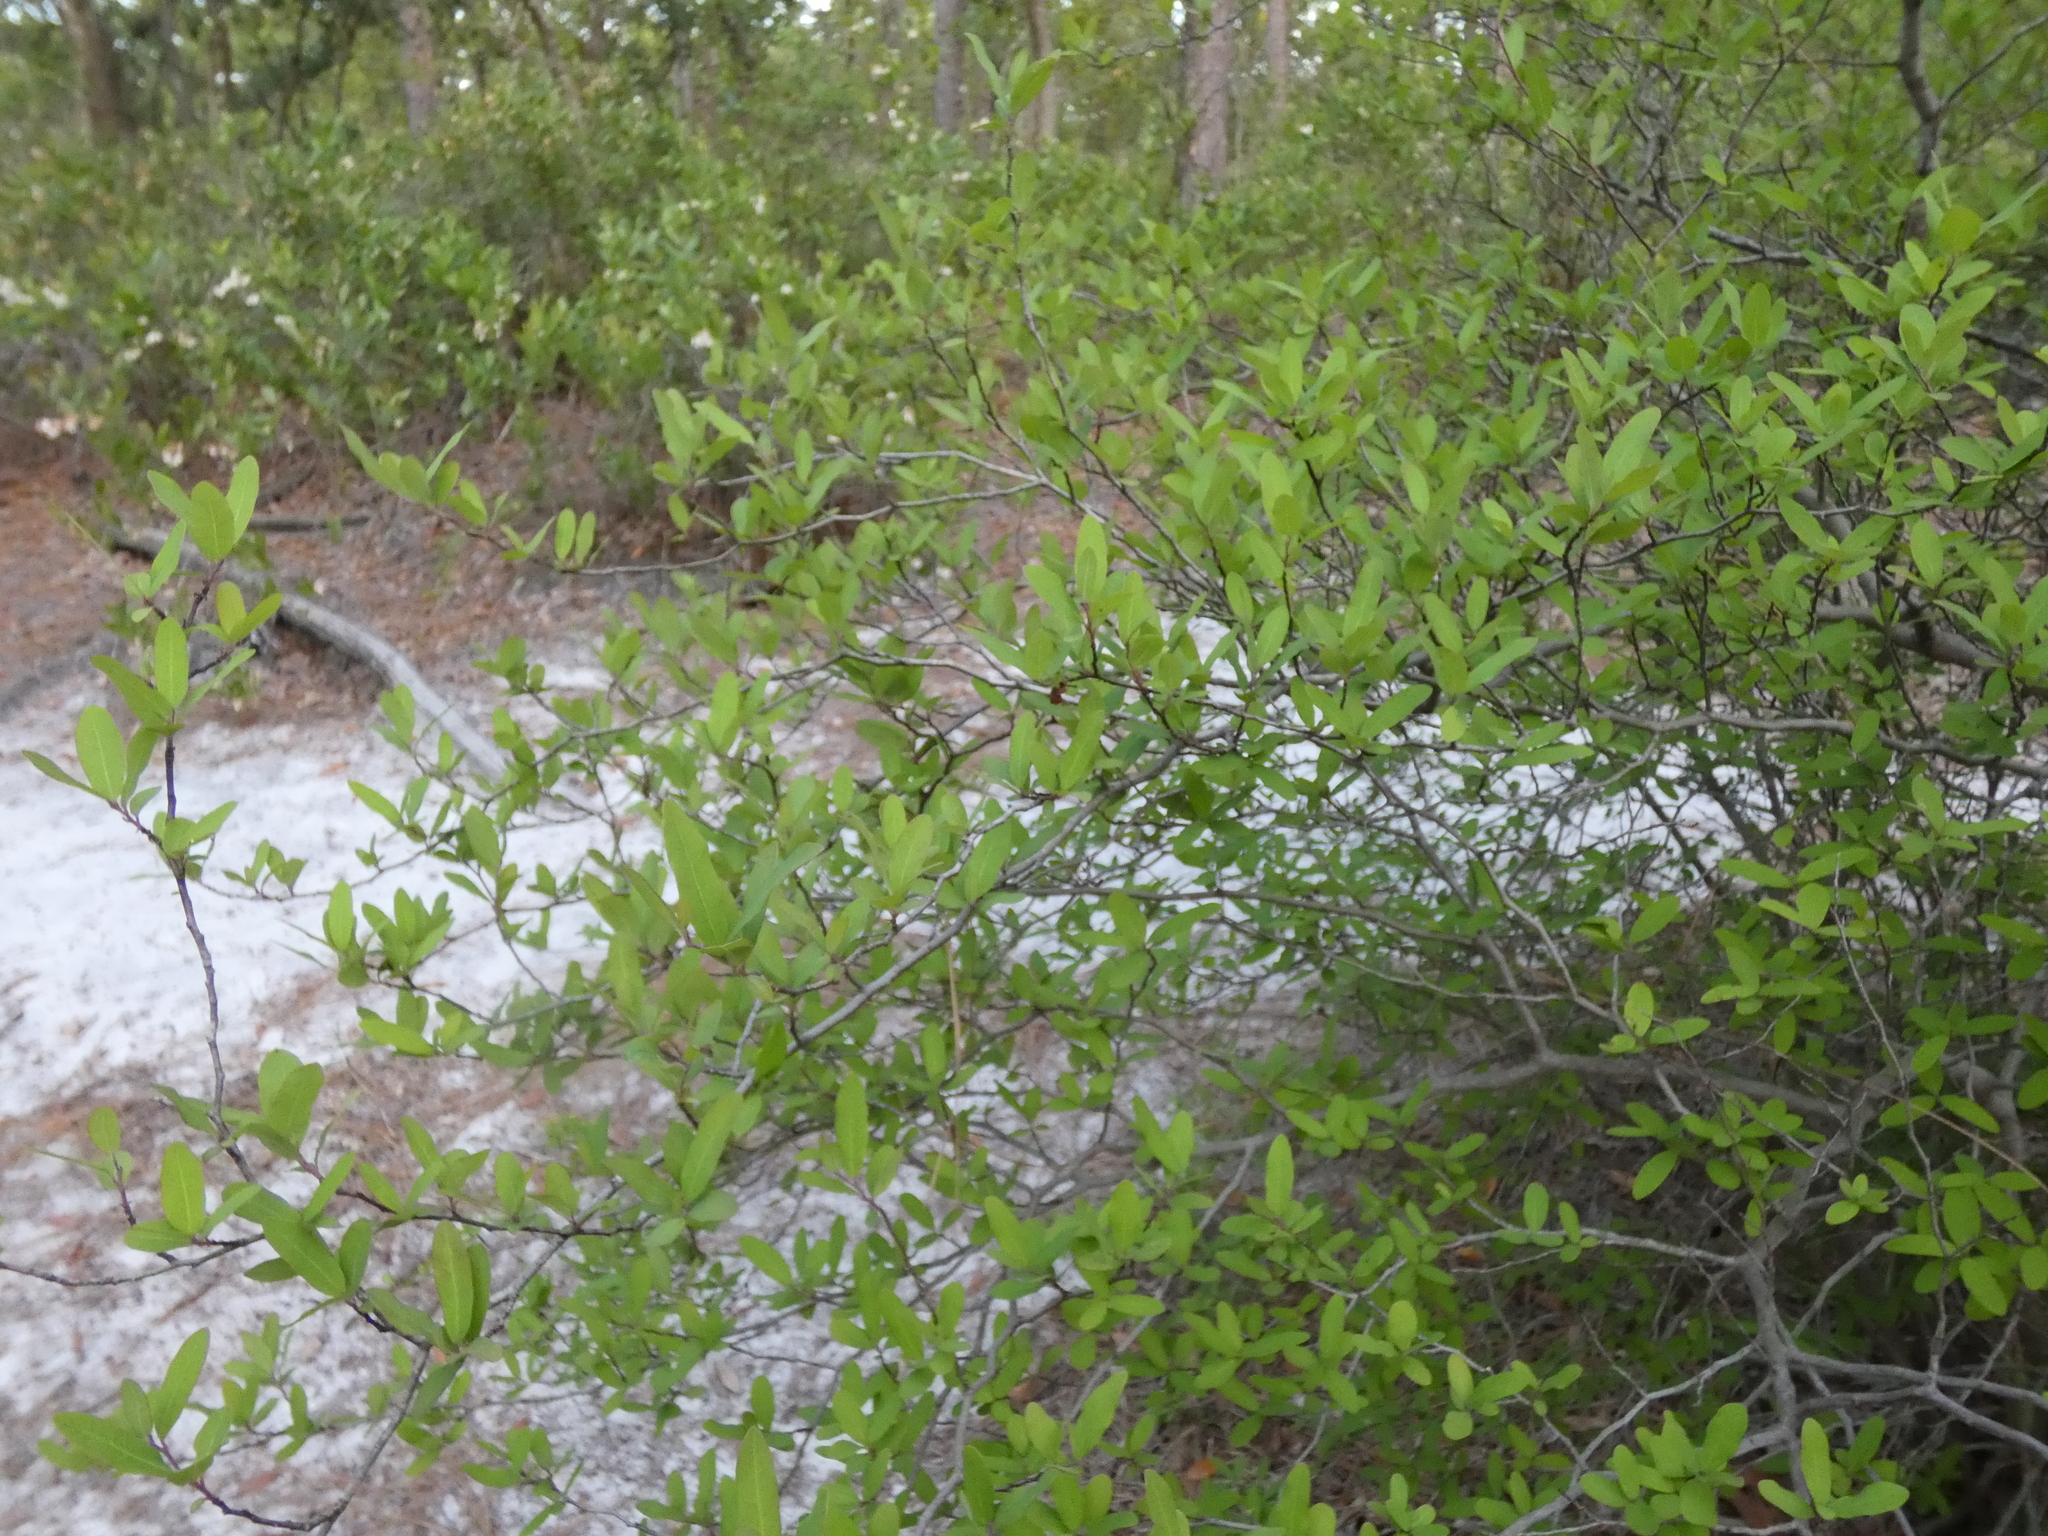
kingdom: Plantae
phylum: Tracheophyta
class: Magnoliopsida
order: Laurales
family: Lauraceae
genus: Litsea
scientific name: Litsea aestivalis
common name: Pondspice
